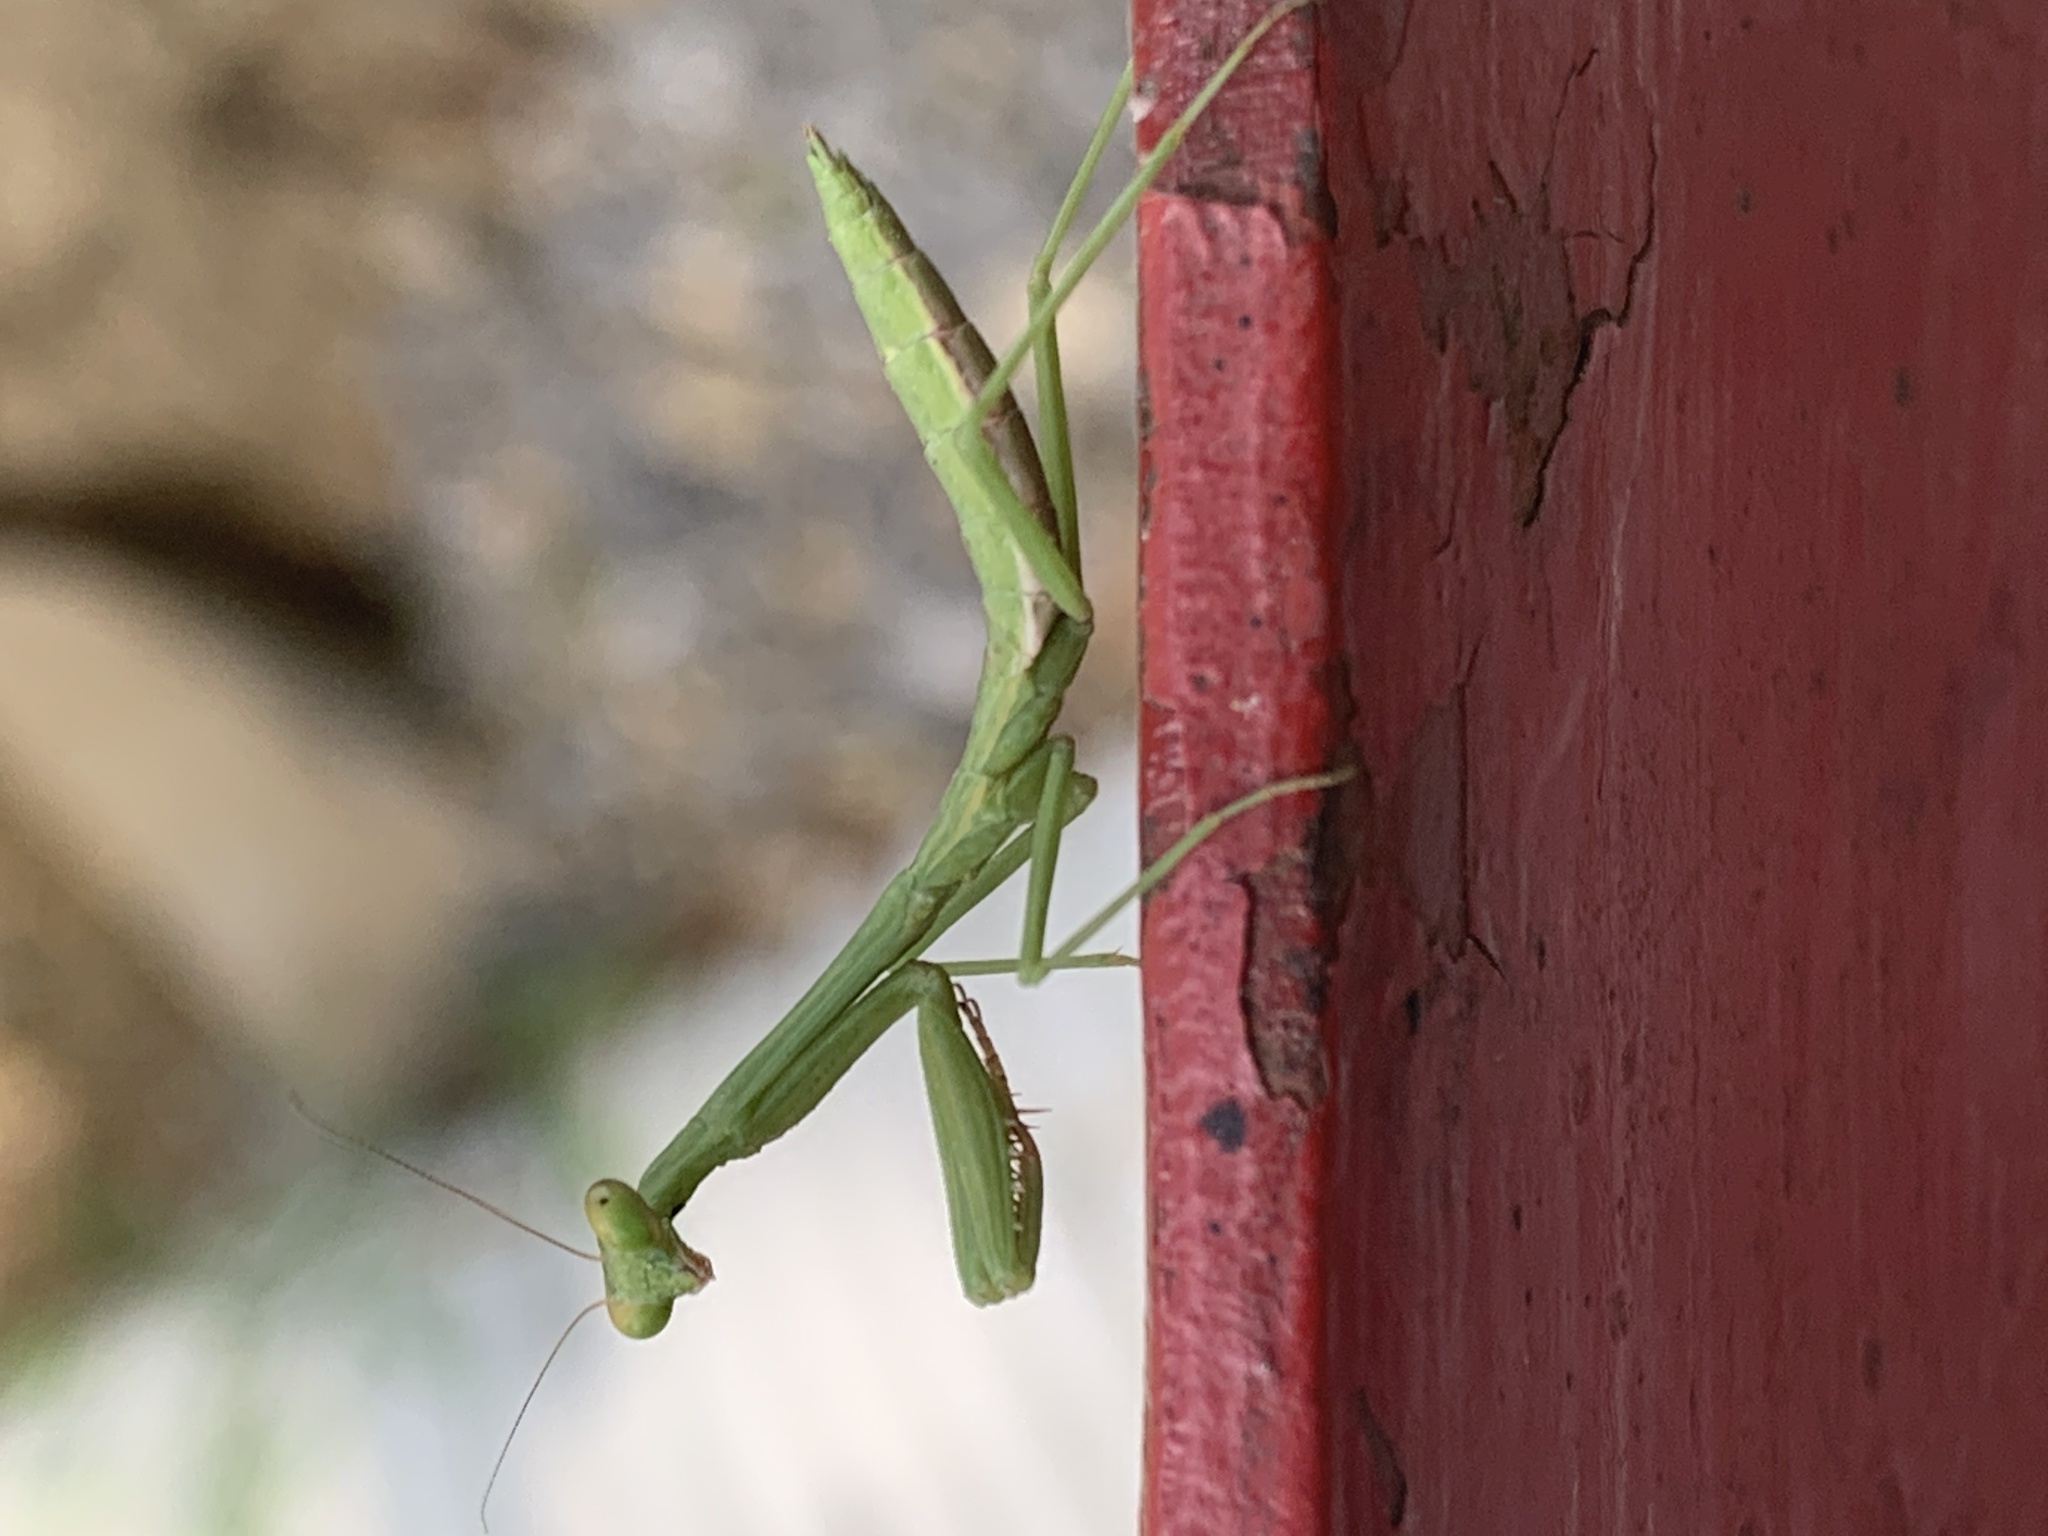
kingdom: Animalia
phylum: Arthropoda
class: Insecta
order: Mantodea
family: Mantidae
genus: Stagmomantis
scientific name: Stagmomantis carolina
